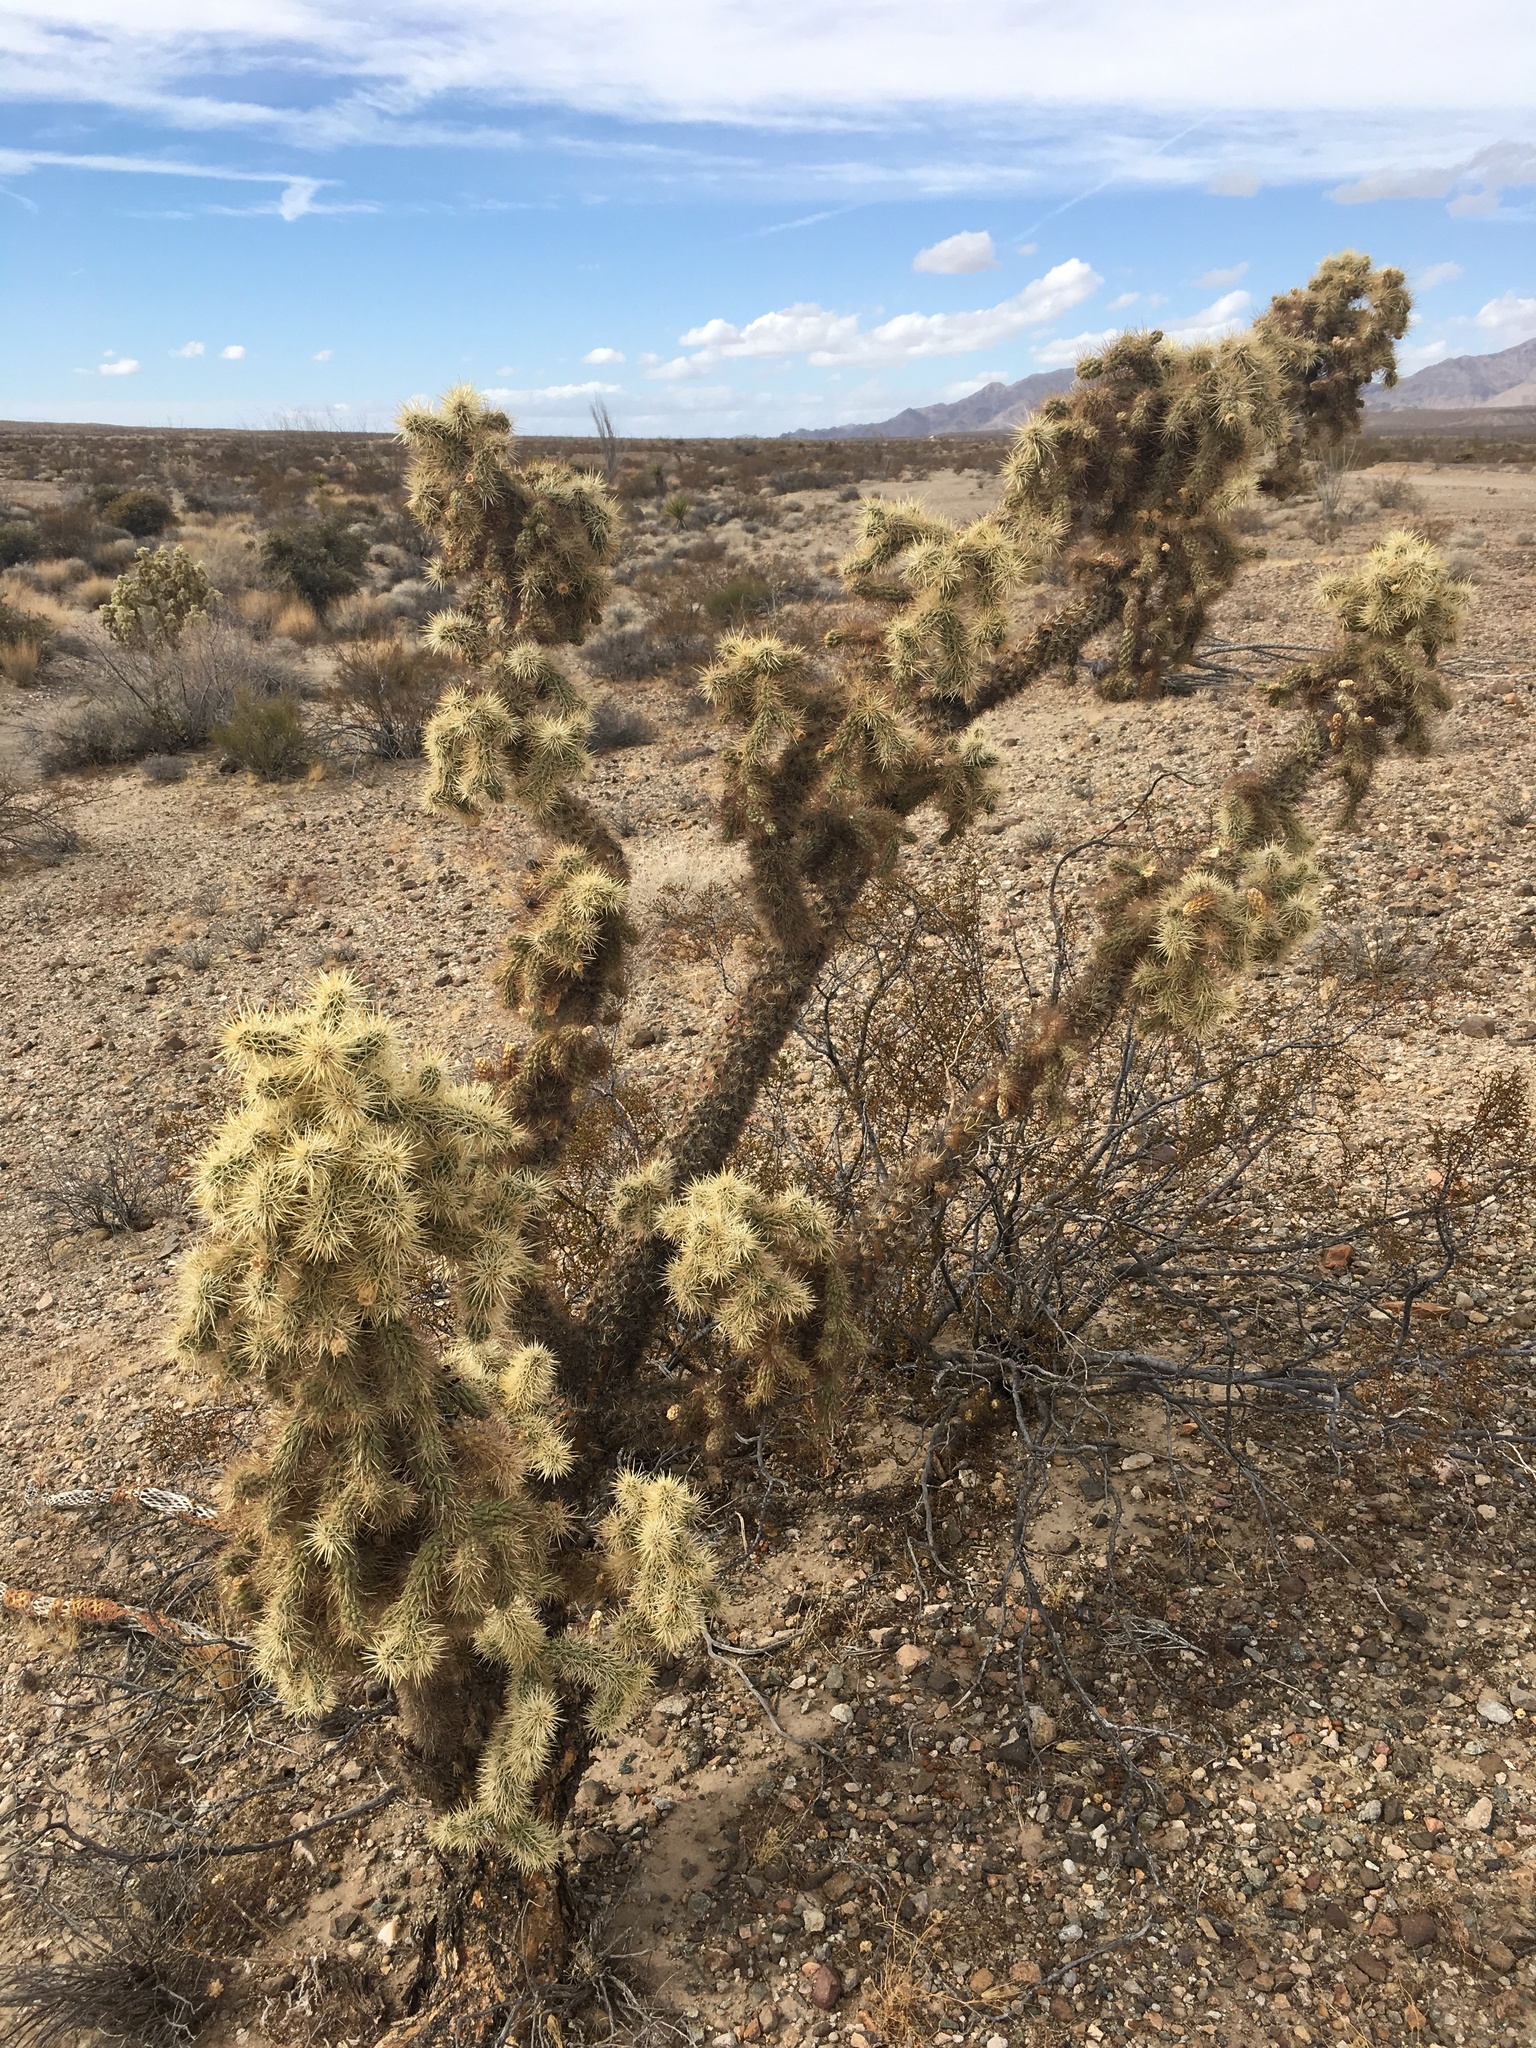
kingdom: Plantae
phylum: Tracheophyta
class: Magnoliopsida
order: Caryophyllales
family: Cactaceae
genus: Cylindropuntia
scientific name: Cylindropuntia munzii
